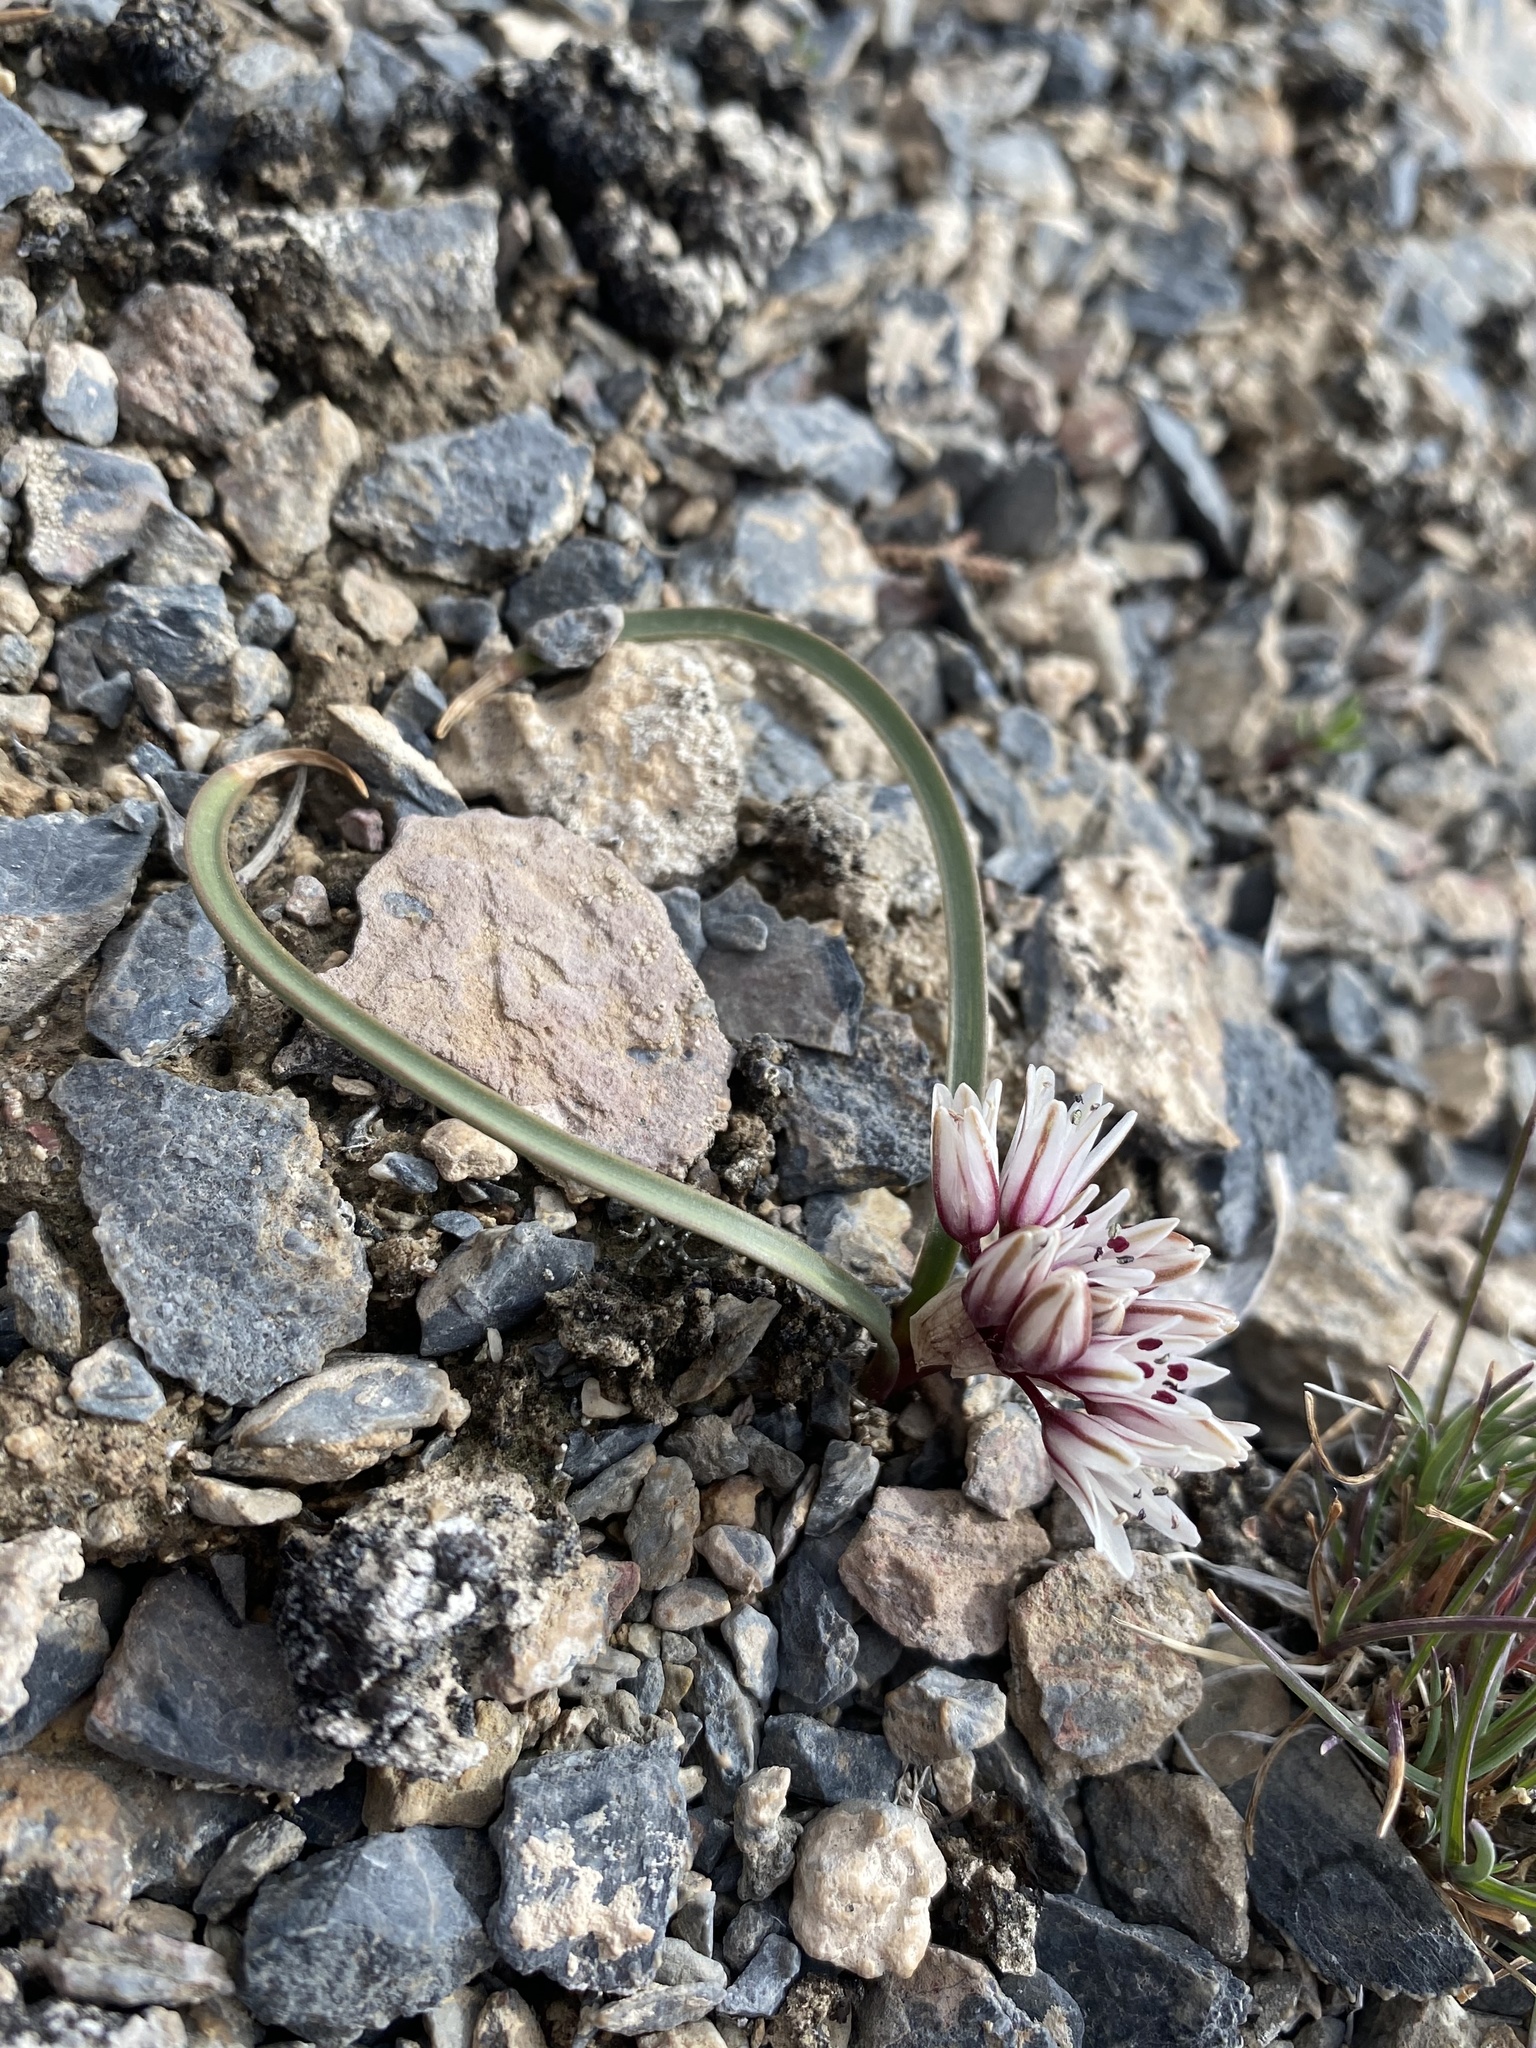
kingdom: Plantae
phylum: Tracheophyta
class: Liliopsida
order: Asparagales
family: Amaryllidaceae
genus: Allium
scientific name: Allium parvum
